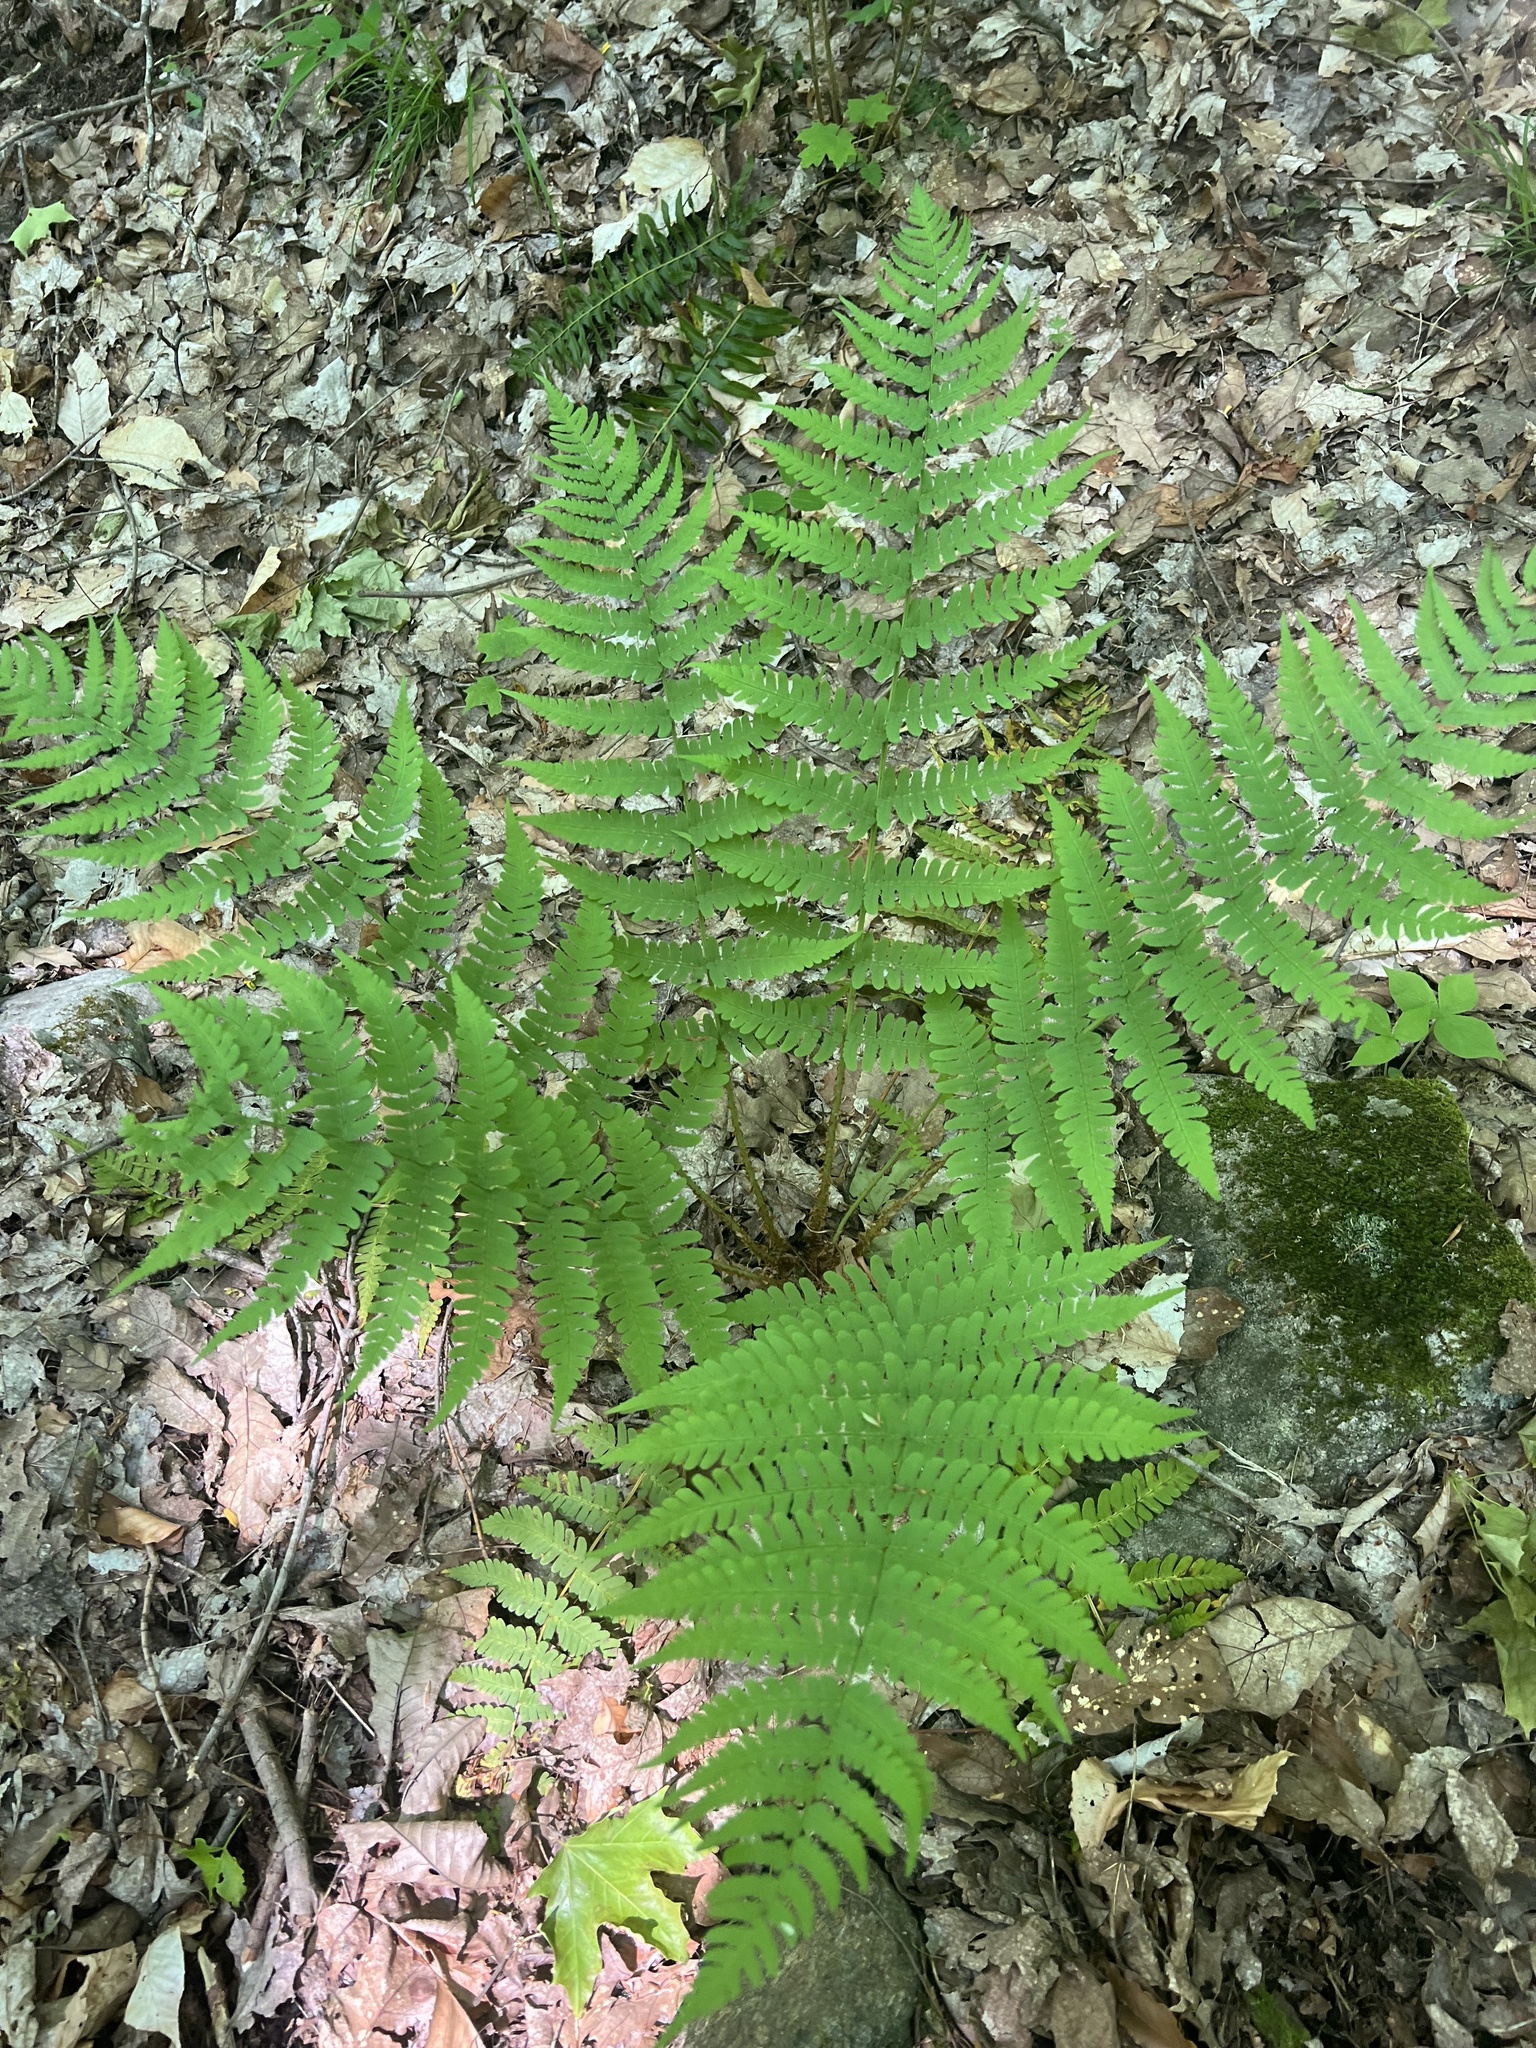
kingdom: Plantae
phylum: Tracheophyta
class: Polypodiopsida
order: Polypodiales
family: Dryopteridaceae
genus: Dryopteris
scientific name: Dryopteris marginalis
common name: Marginal wood fern
